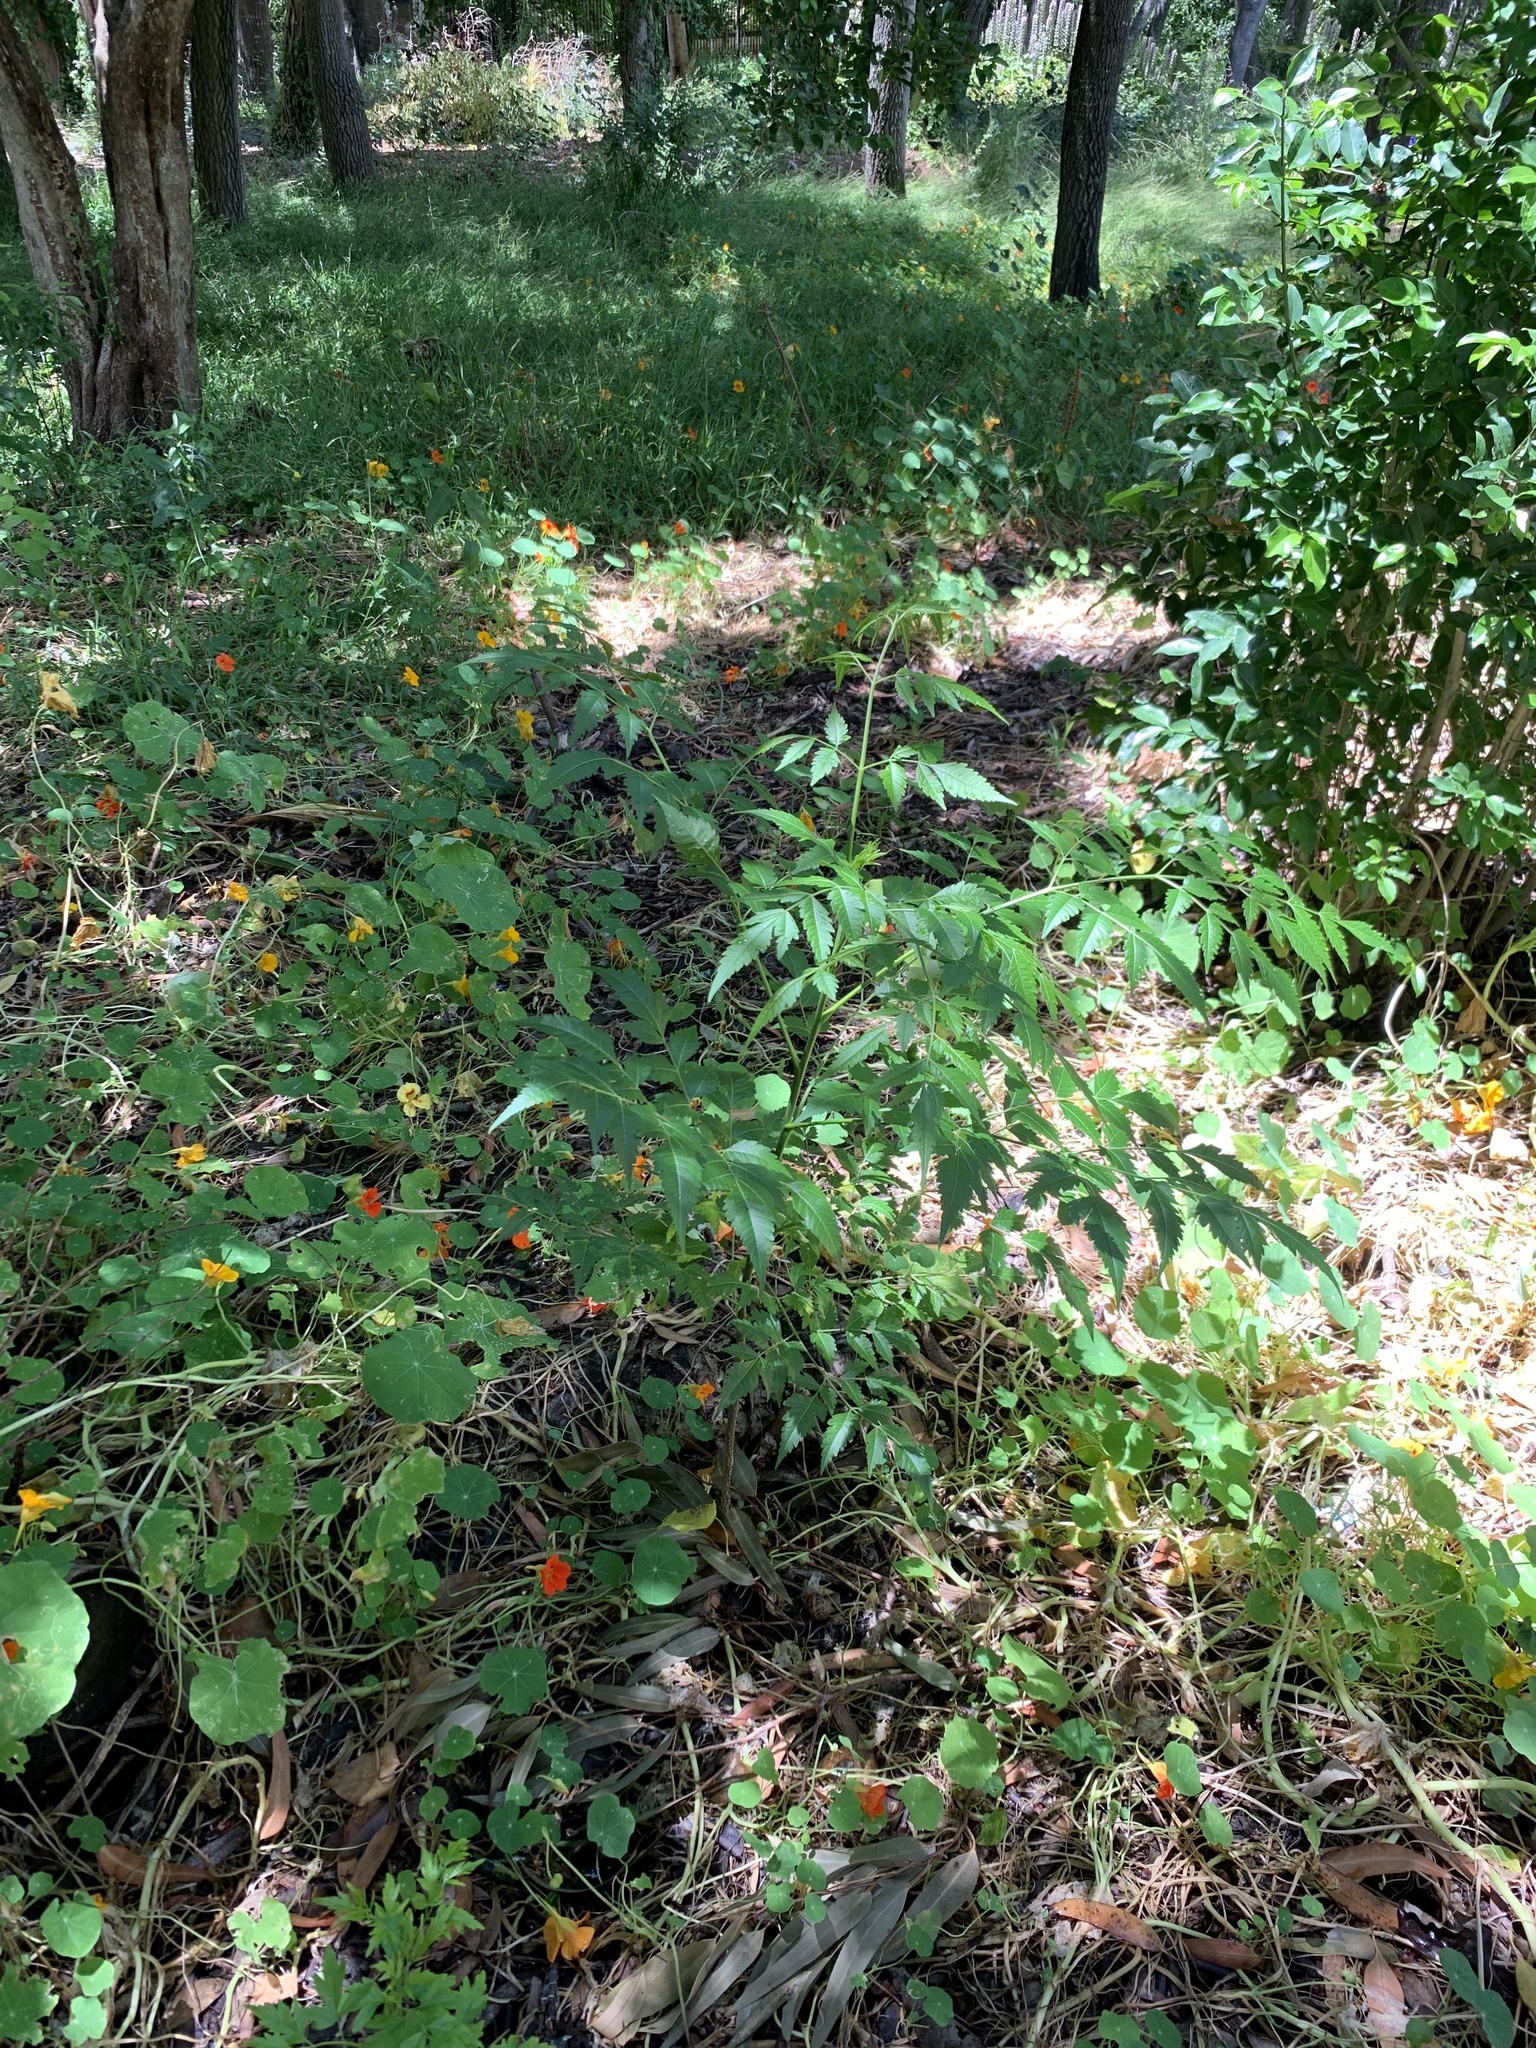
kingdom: Plantae
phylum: Tracheophyta
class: Magnoliopsida
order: Sapindales
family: Meliaceae
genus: Melia
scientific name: Melia azedarach
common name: Chinaberrytree
